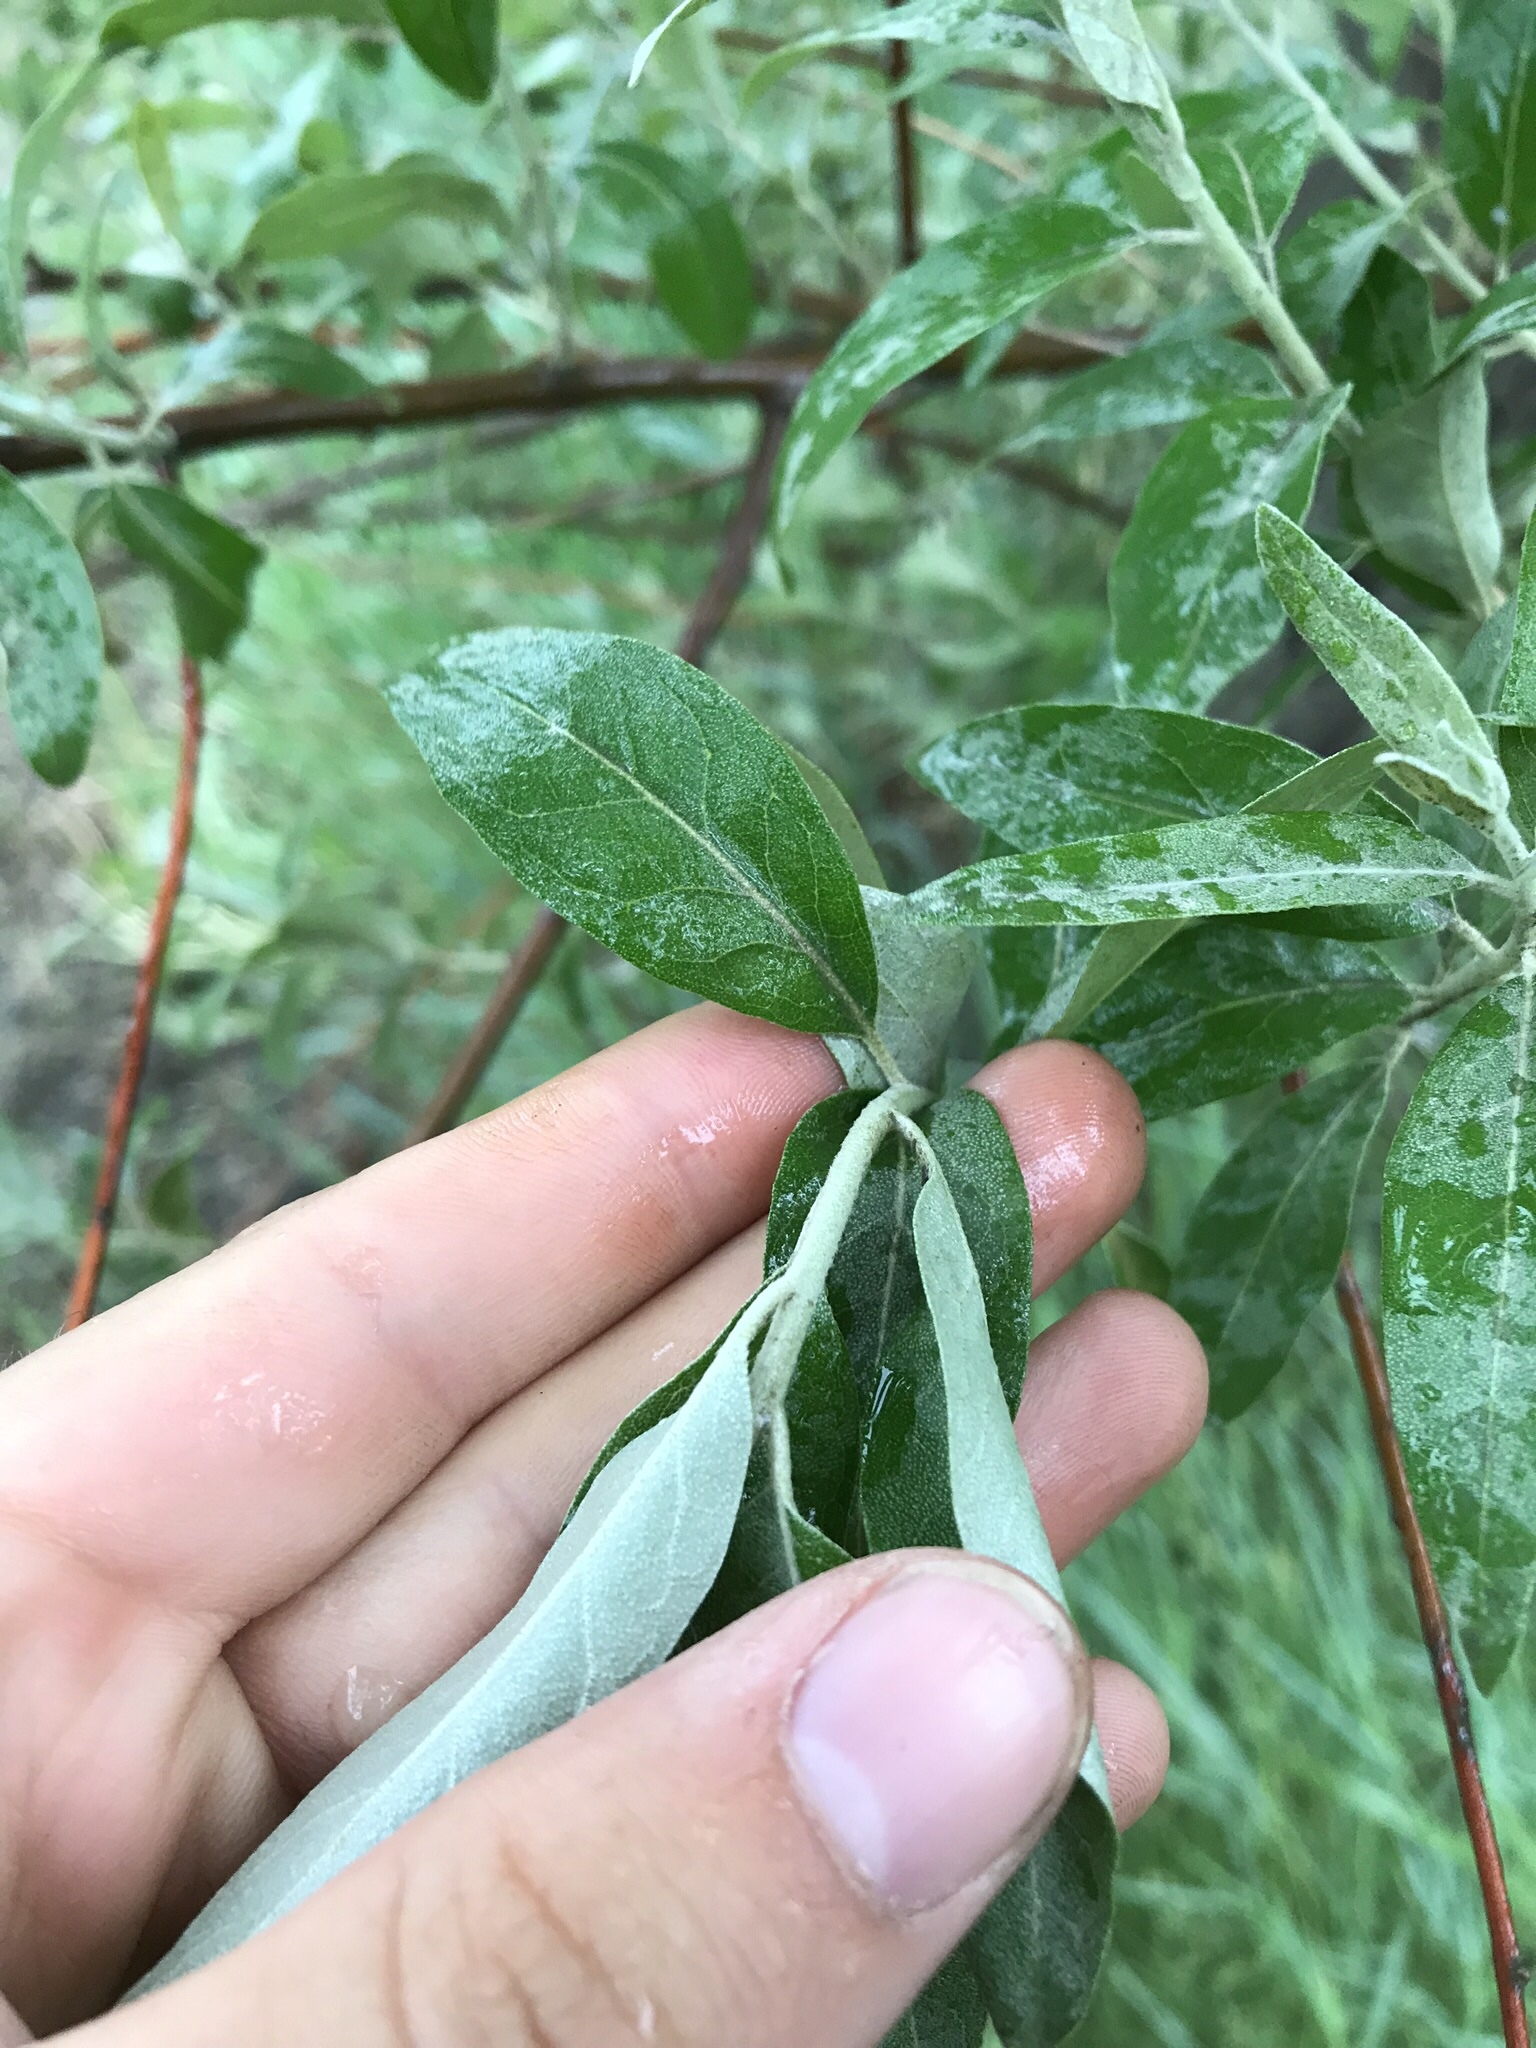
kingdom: Plantae
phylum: Tracheophyta
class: Magnoliopsida
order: Rosales
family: Elaeagnaceae
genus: Elaeagnus
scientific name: Elaeagnus angustifolia
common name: Russian olive
